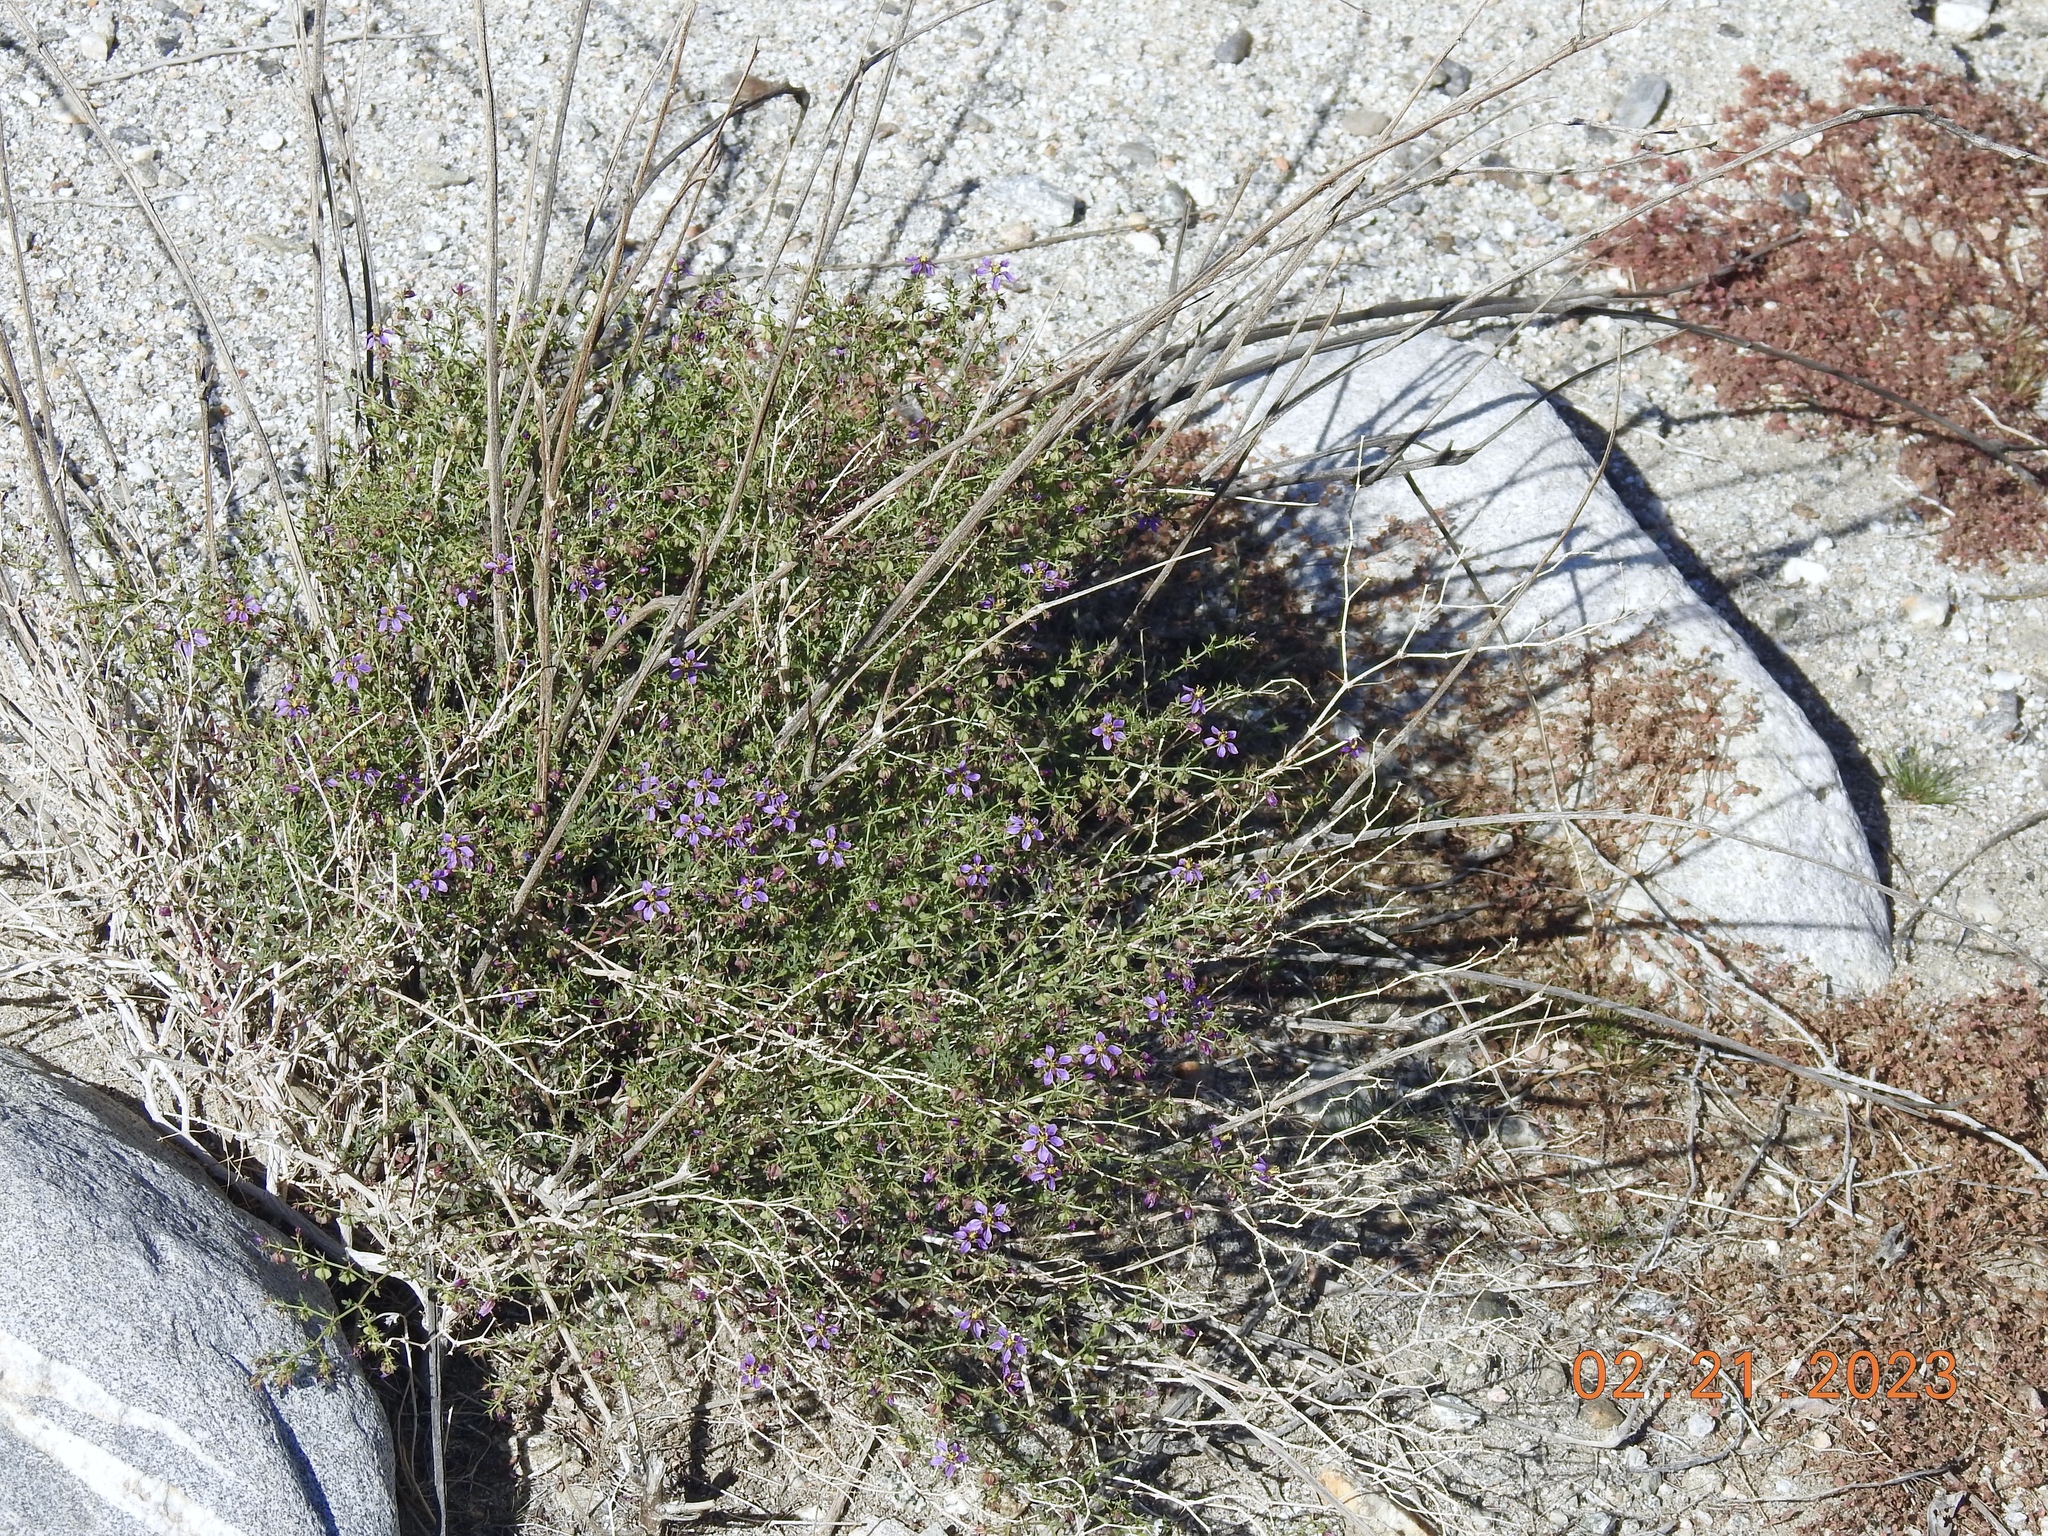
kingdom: Plantae
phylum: Tracheophyta
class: Magnoliopsida
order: Zygophyllales
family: Zygophyllaceae
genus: Fagonia
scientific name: Fagonia laevis
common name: California fagonbush
